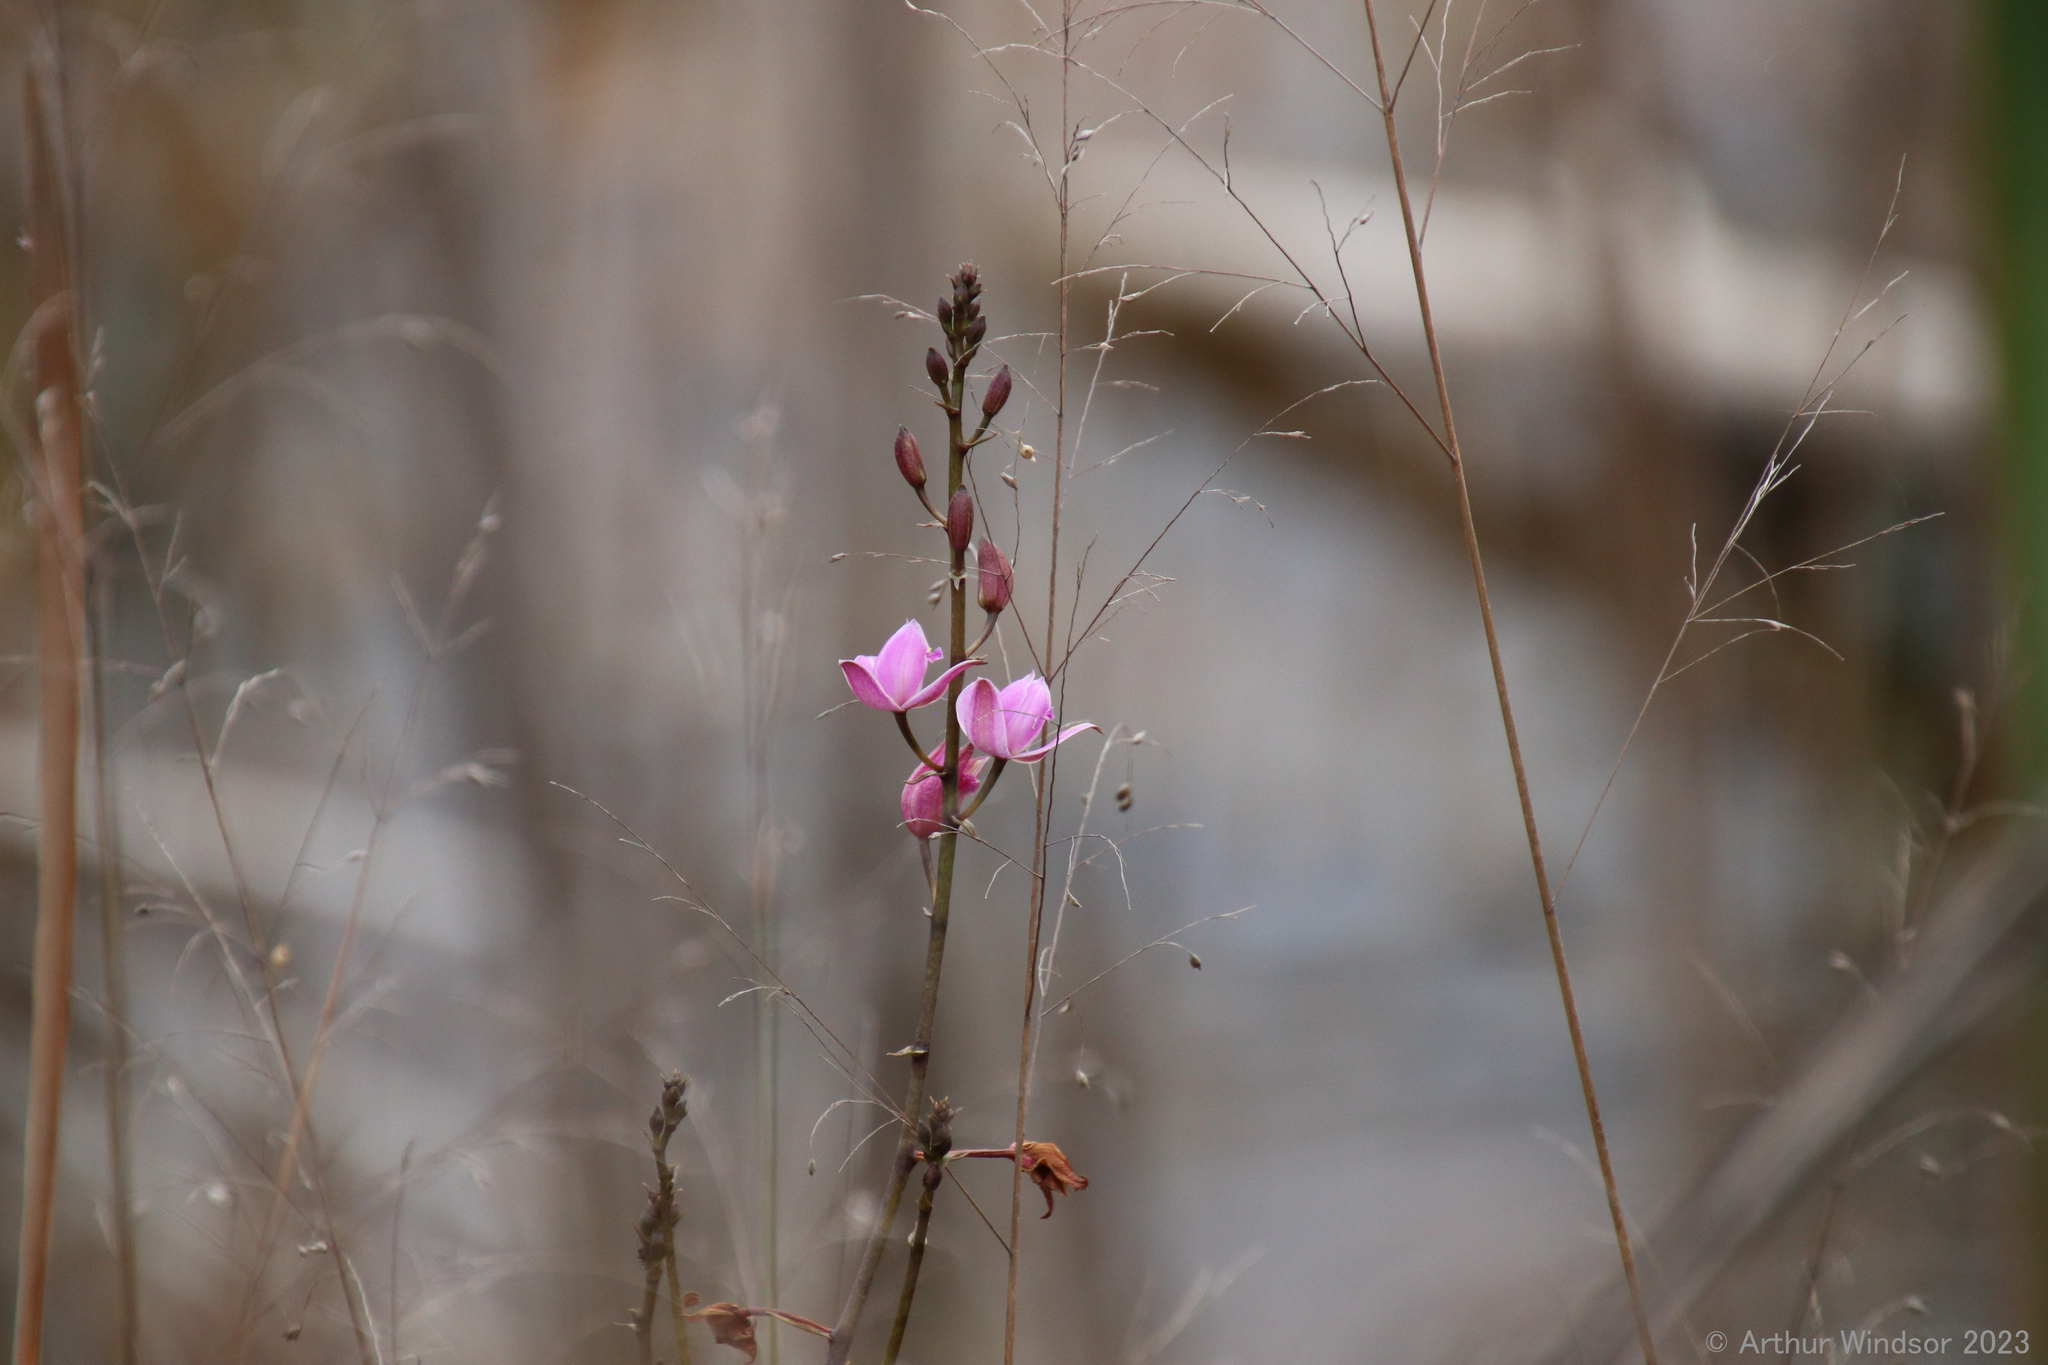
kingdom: Plantae
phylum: Tracheophyta
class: Liliopsida
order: Asparagales
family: Orchidaceae
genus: Bletia
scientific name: Bletia purpurea
